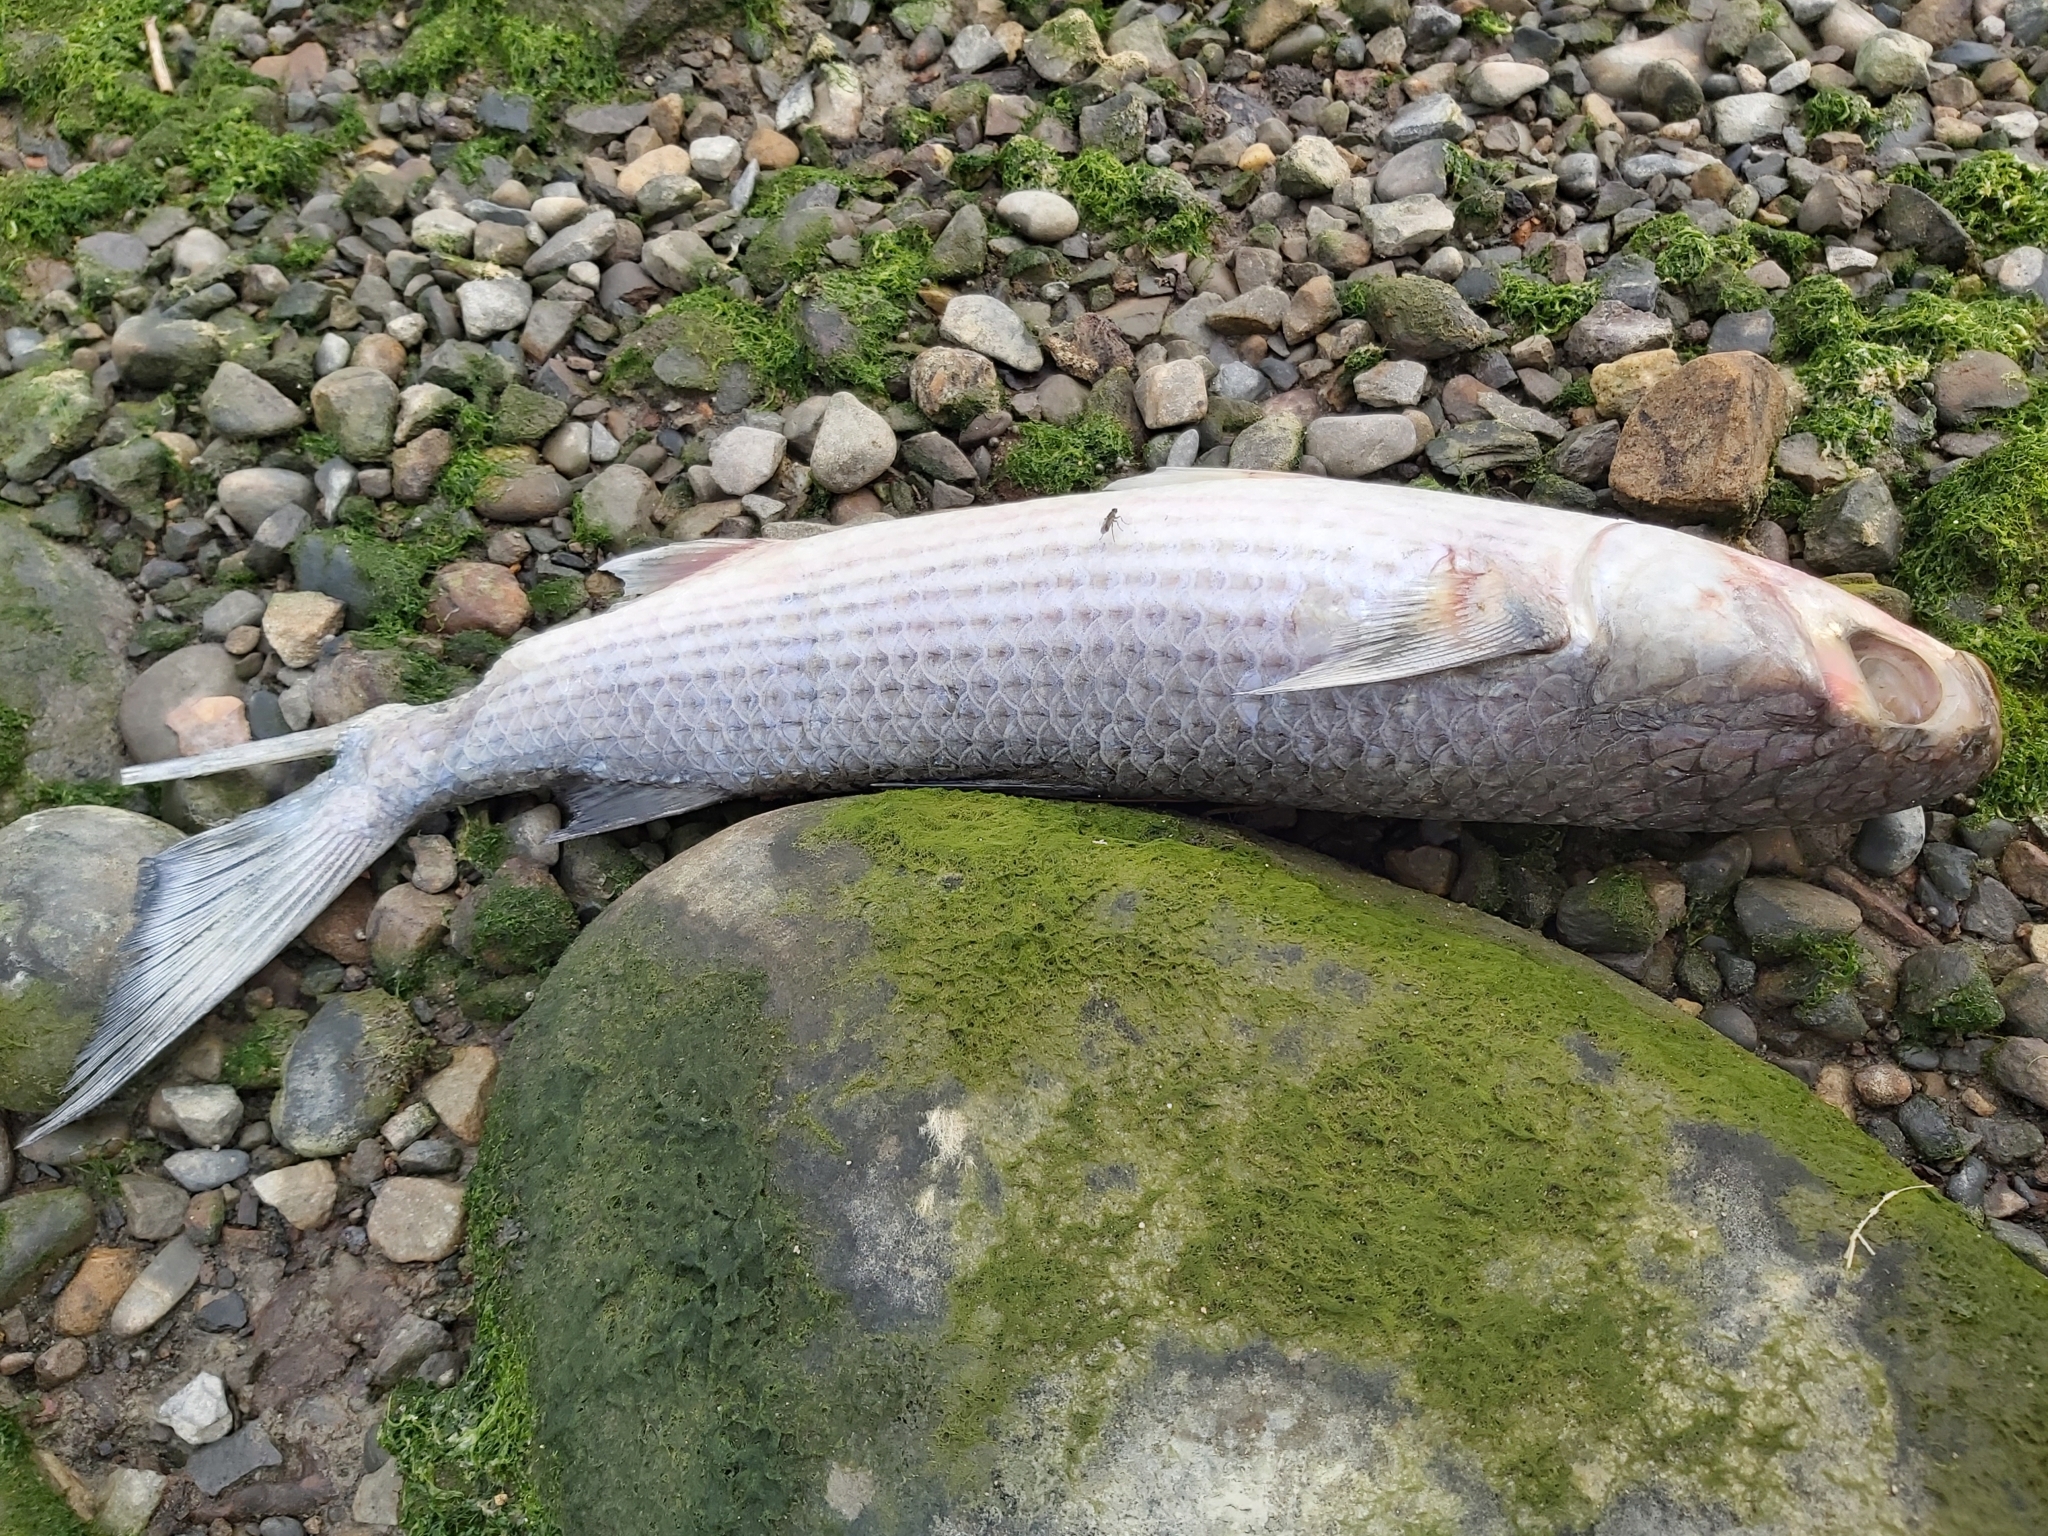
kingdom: Animalia
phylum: Chordata
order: Mugiliformes
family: Mugilidae
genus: Mugil
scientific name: Mugil cephalus
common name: Grey mullet
